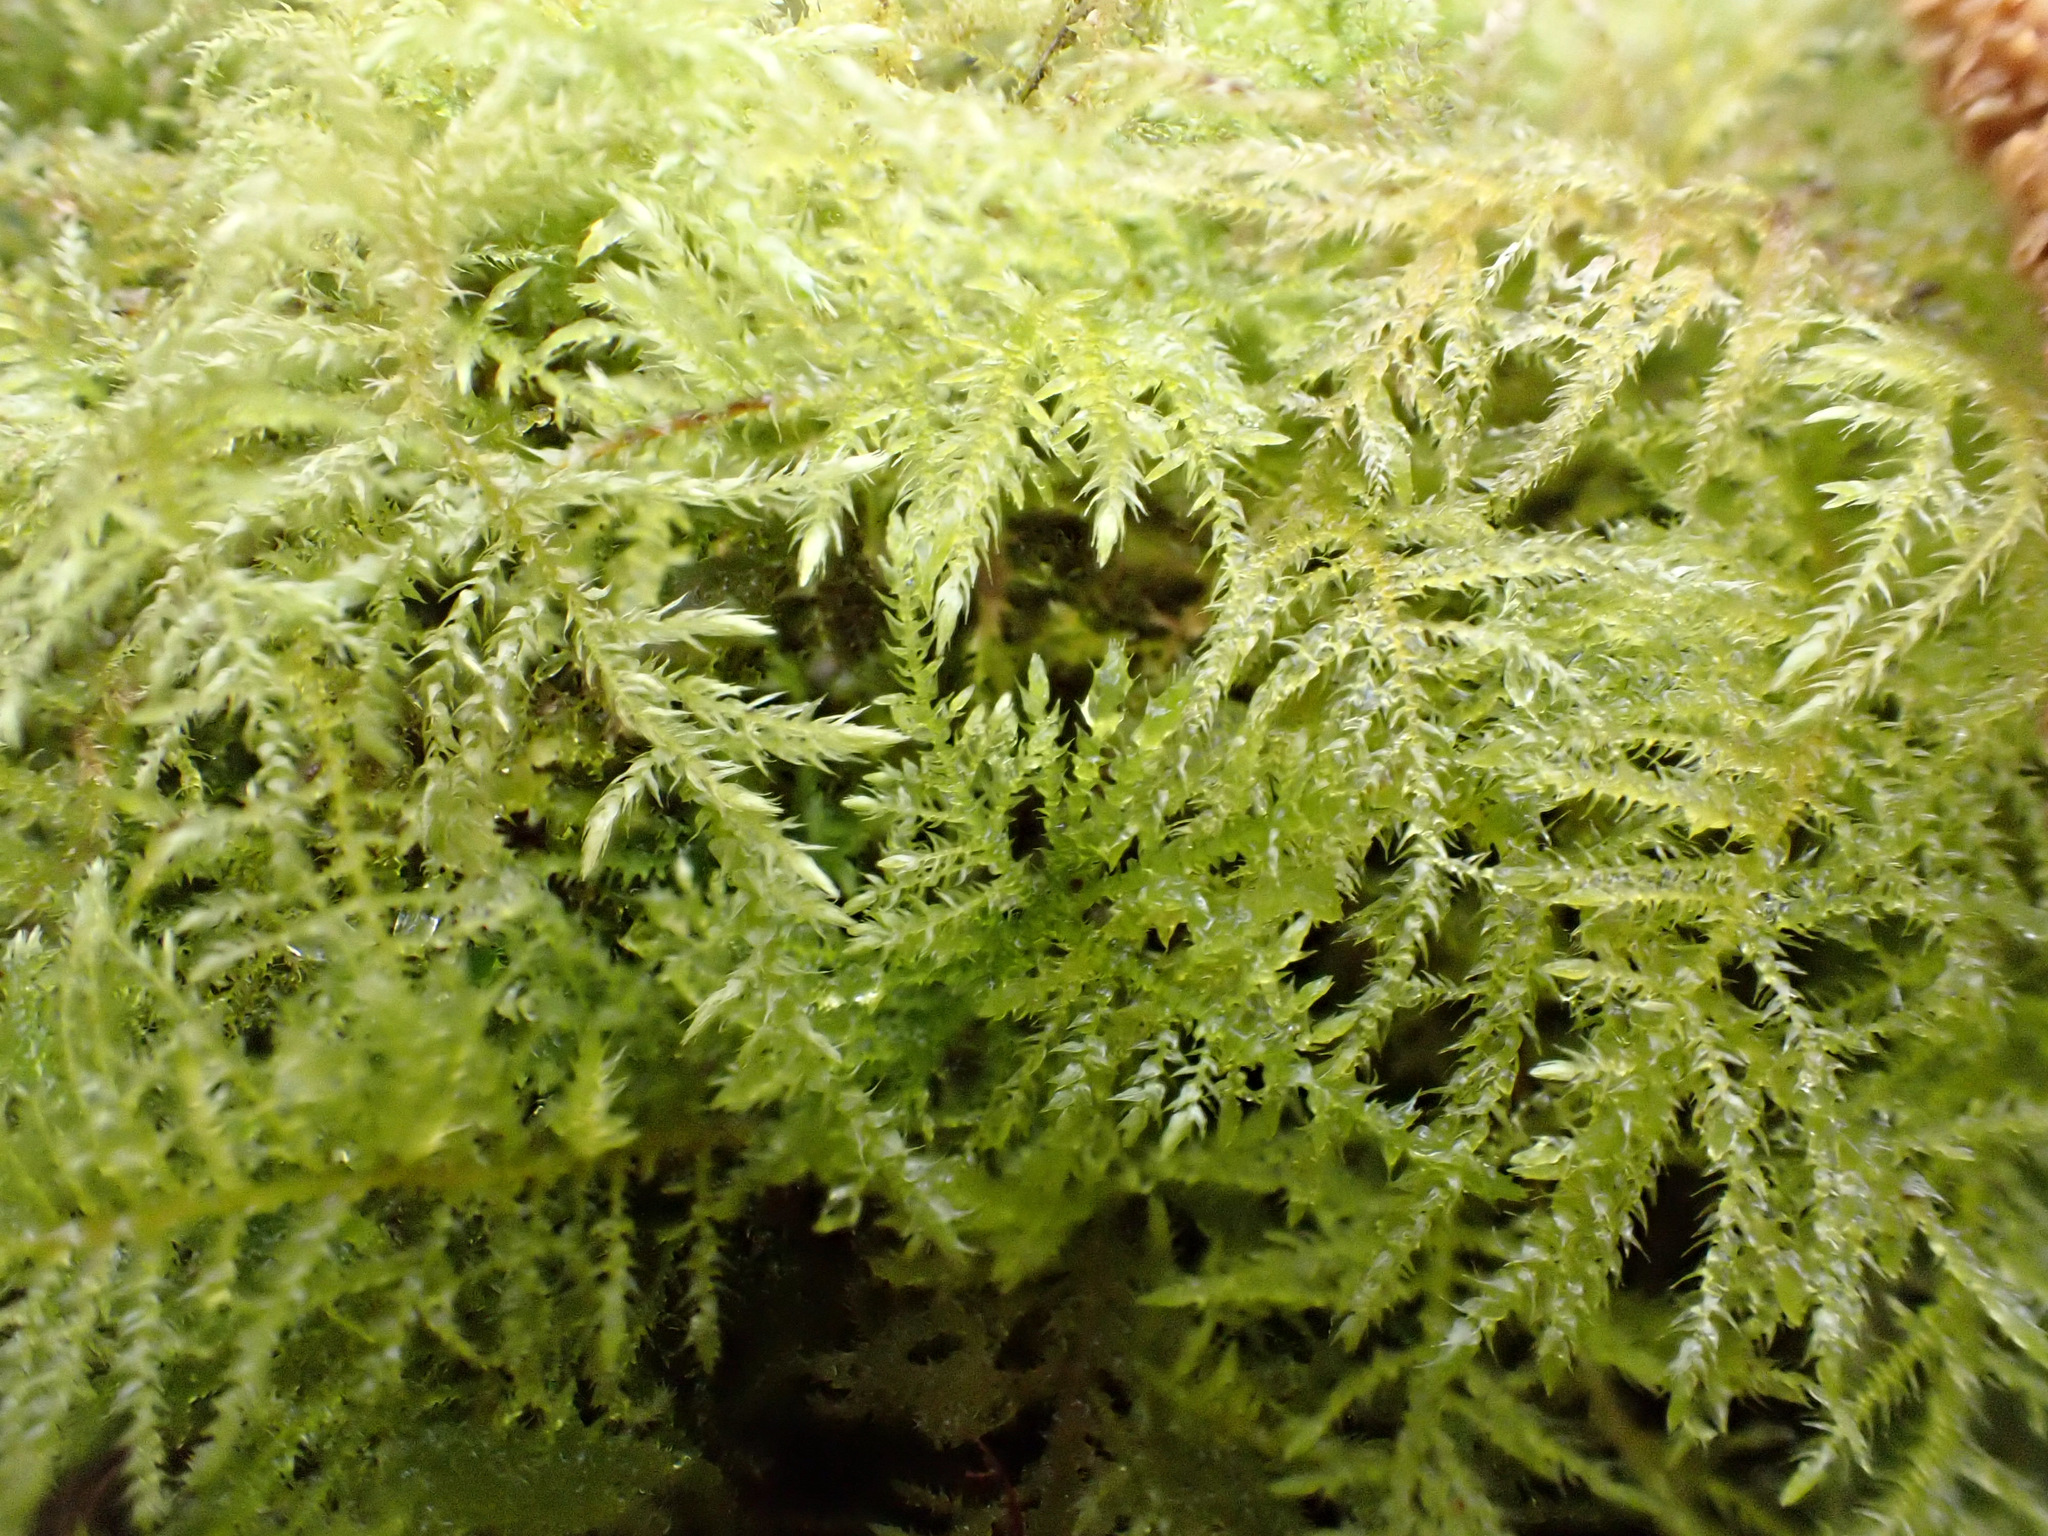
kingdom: Plantae
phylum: Bryophyta
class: Bryopsida
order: Hypnales
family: Brachytheciaceae
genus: Kindbergia
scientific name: Kindbergia praelonga
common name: Slender beaked moss
